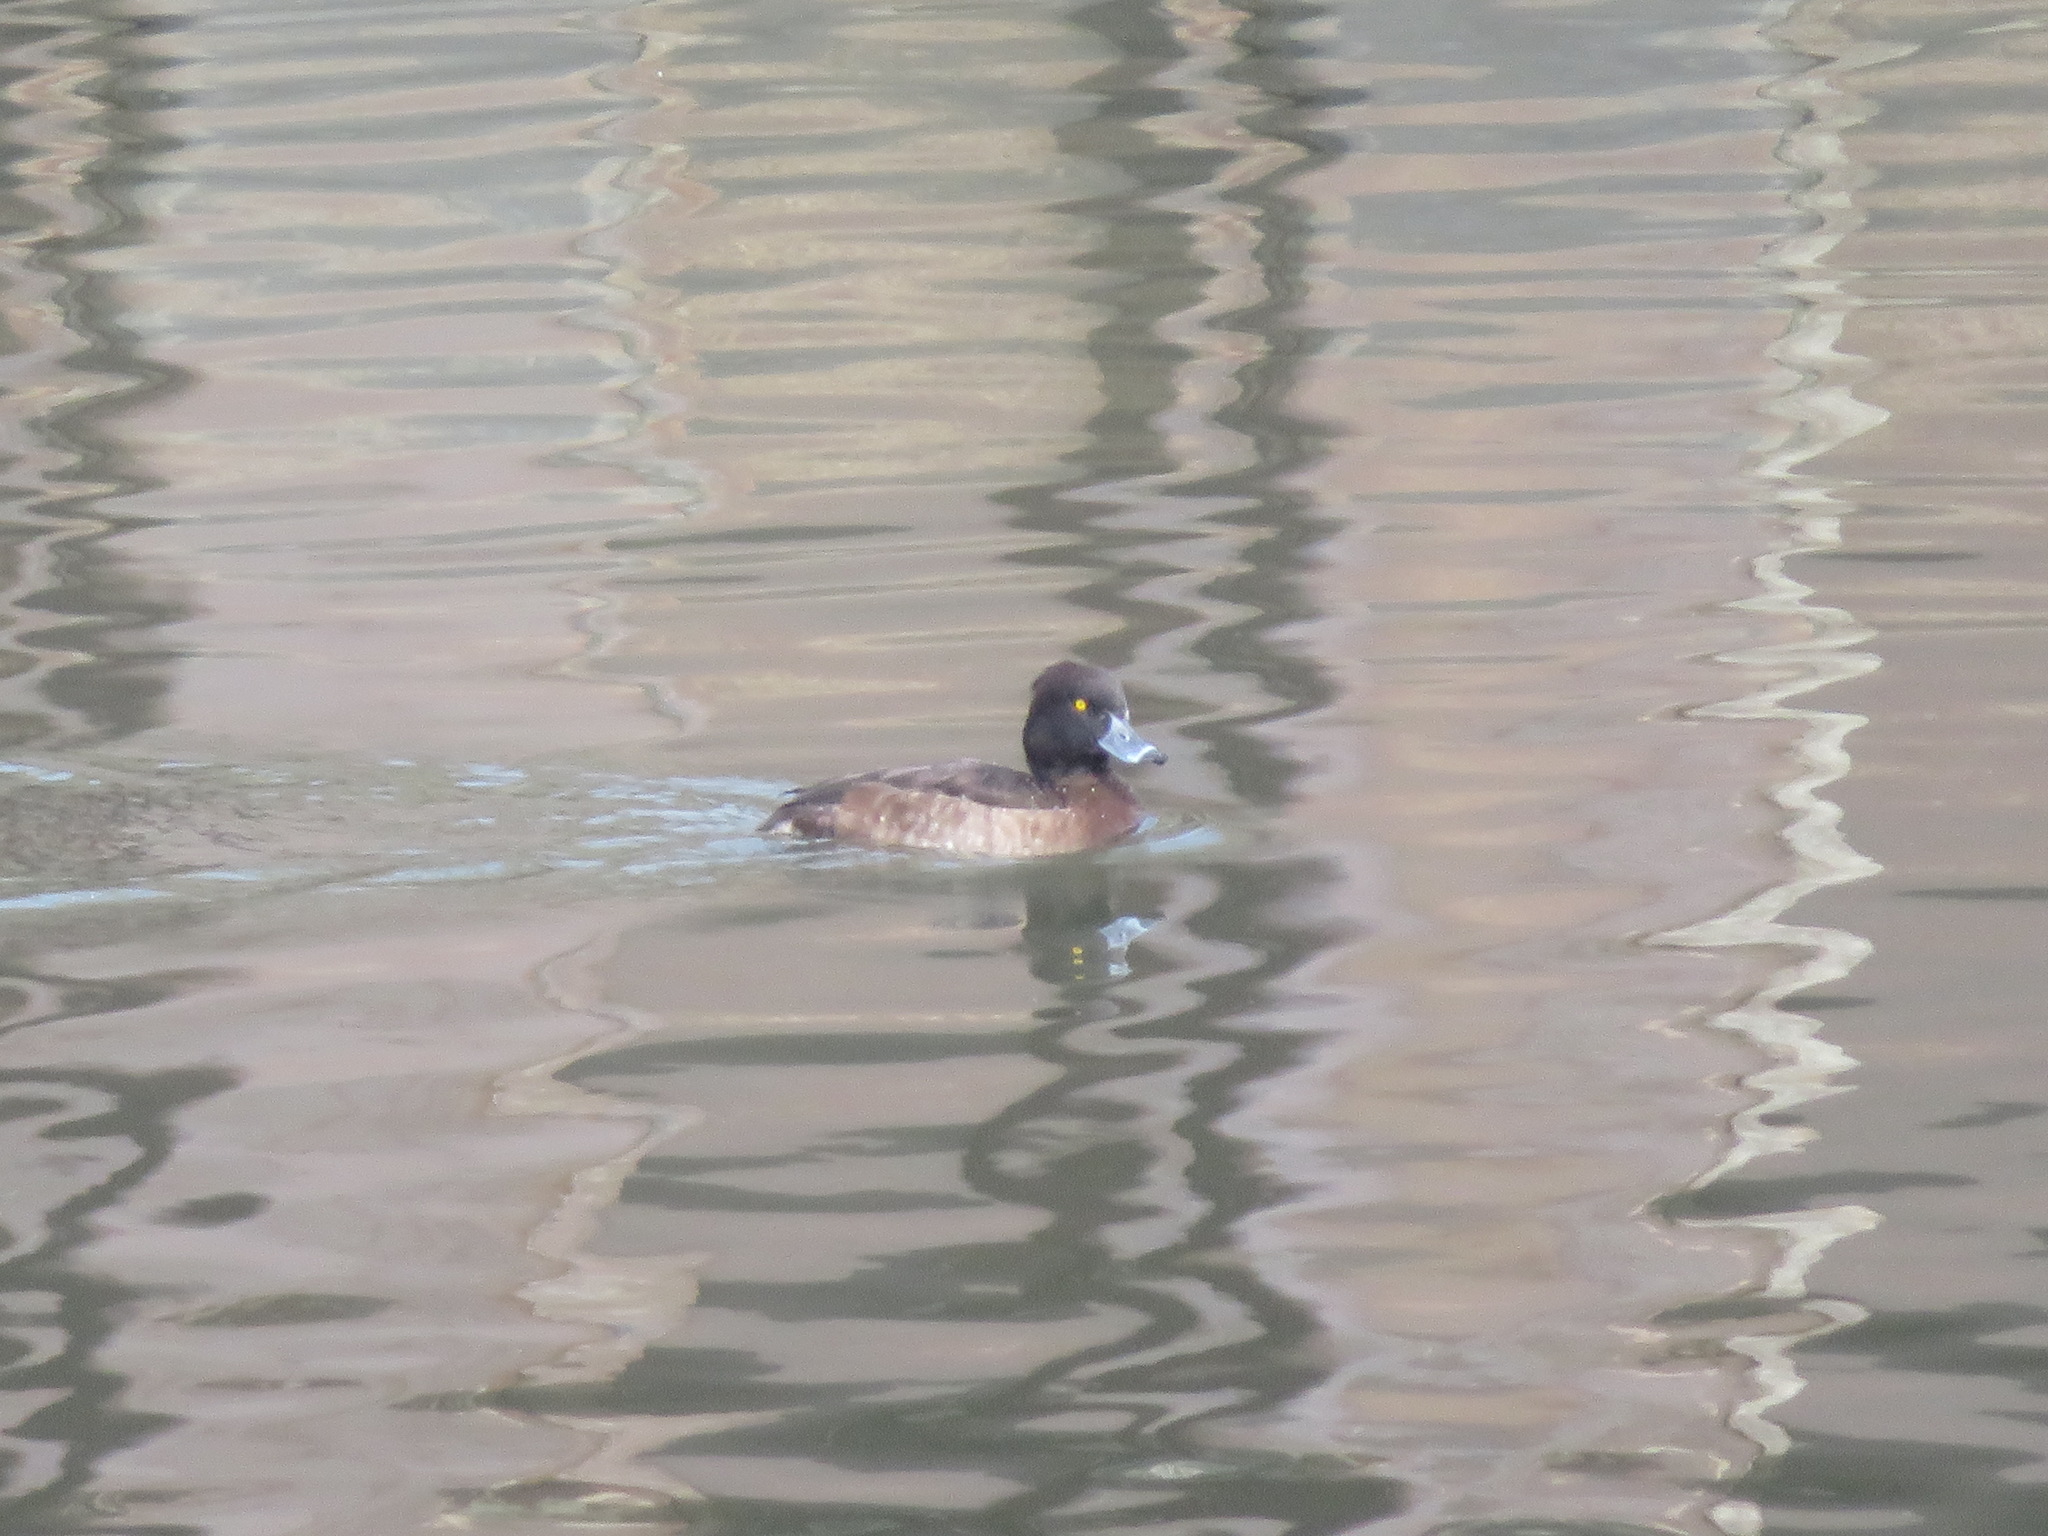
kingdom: Animalia
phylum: Chordata
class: Aves
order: Anseriformes
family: Anatidae
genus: Aythya
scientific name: Aythya fuligula
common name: Tufted duck
